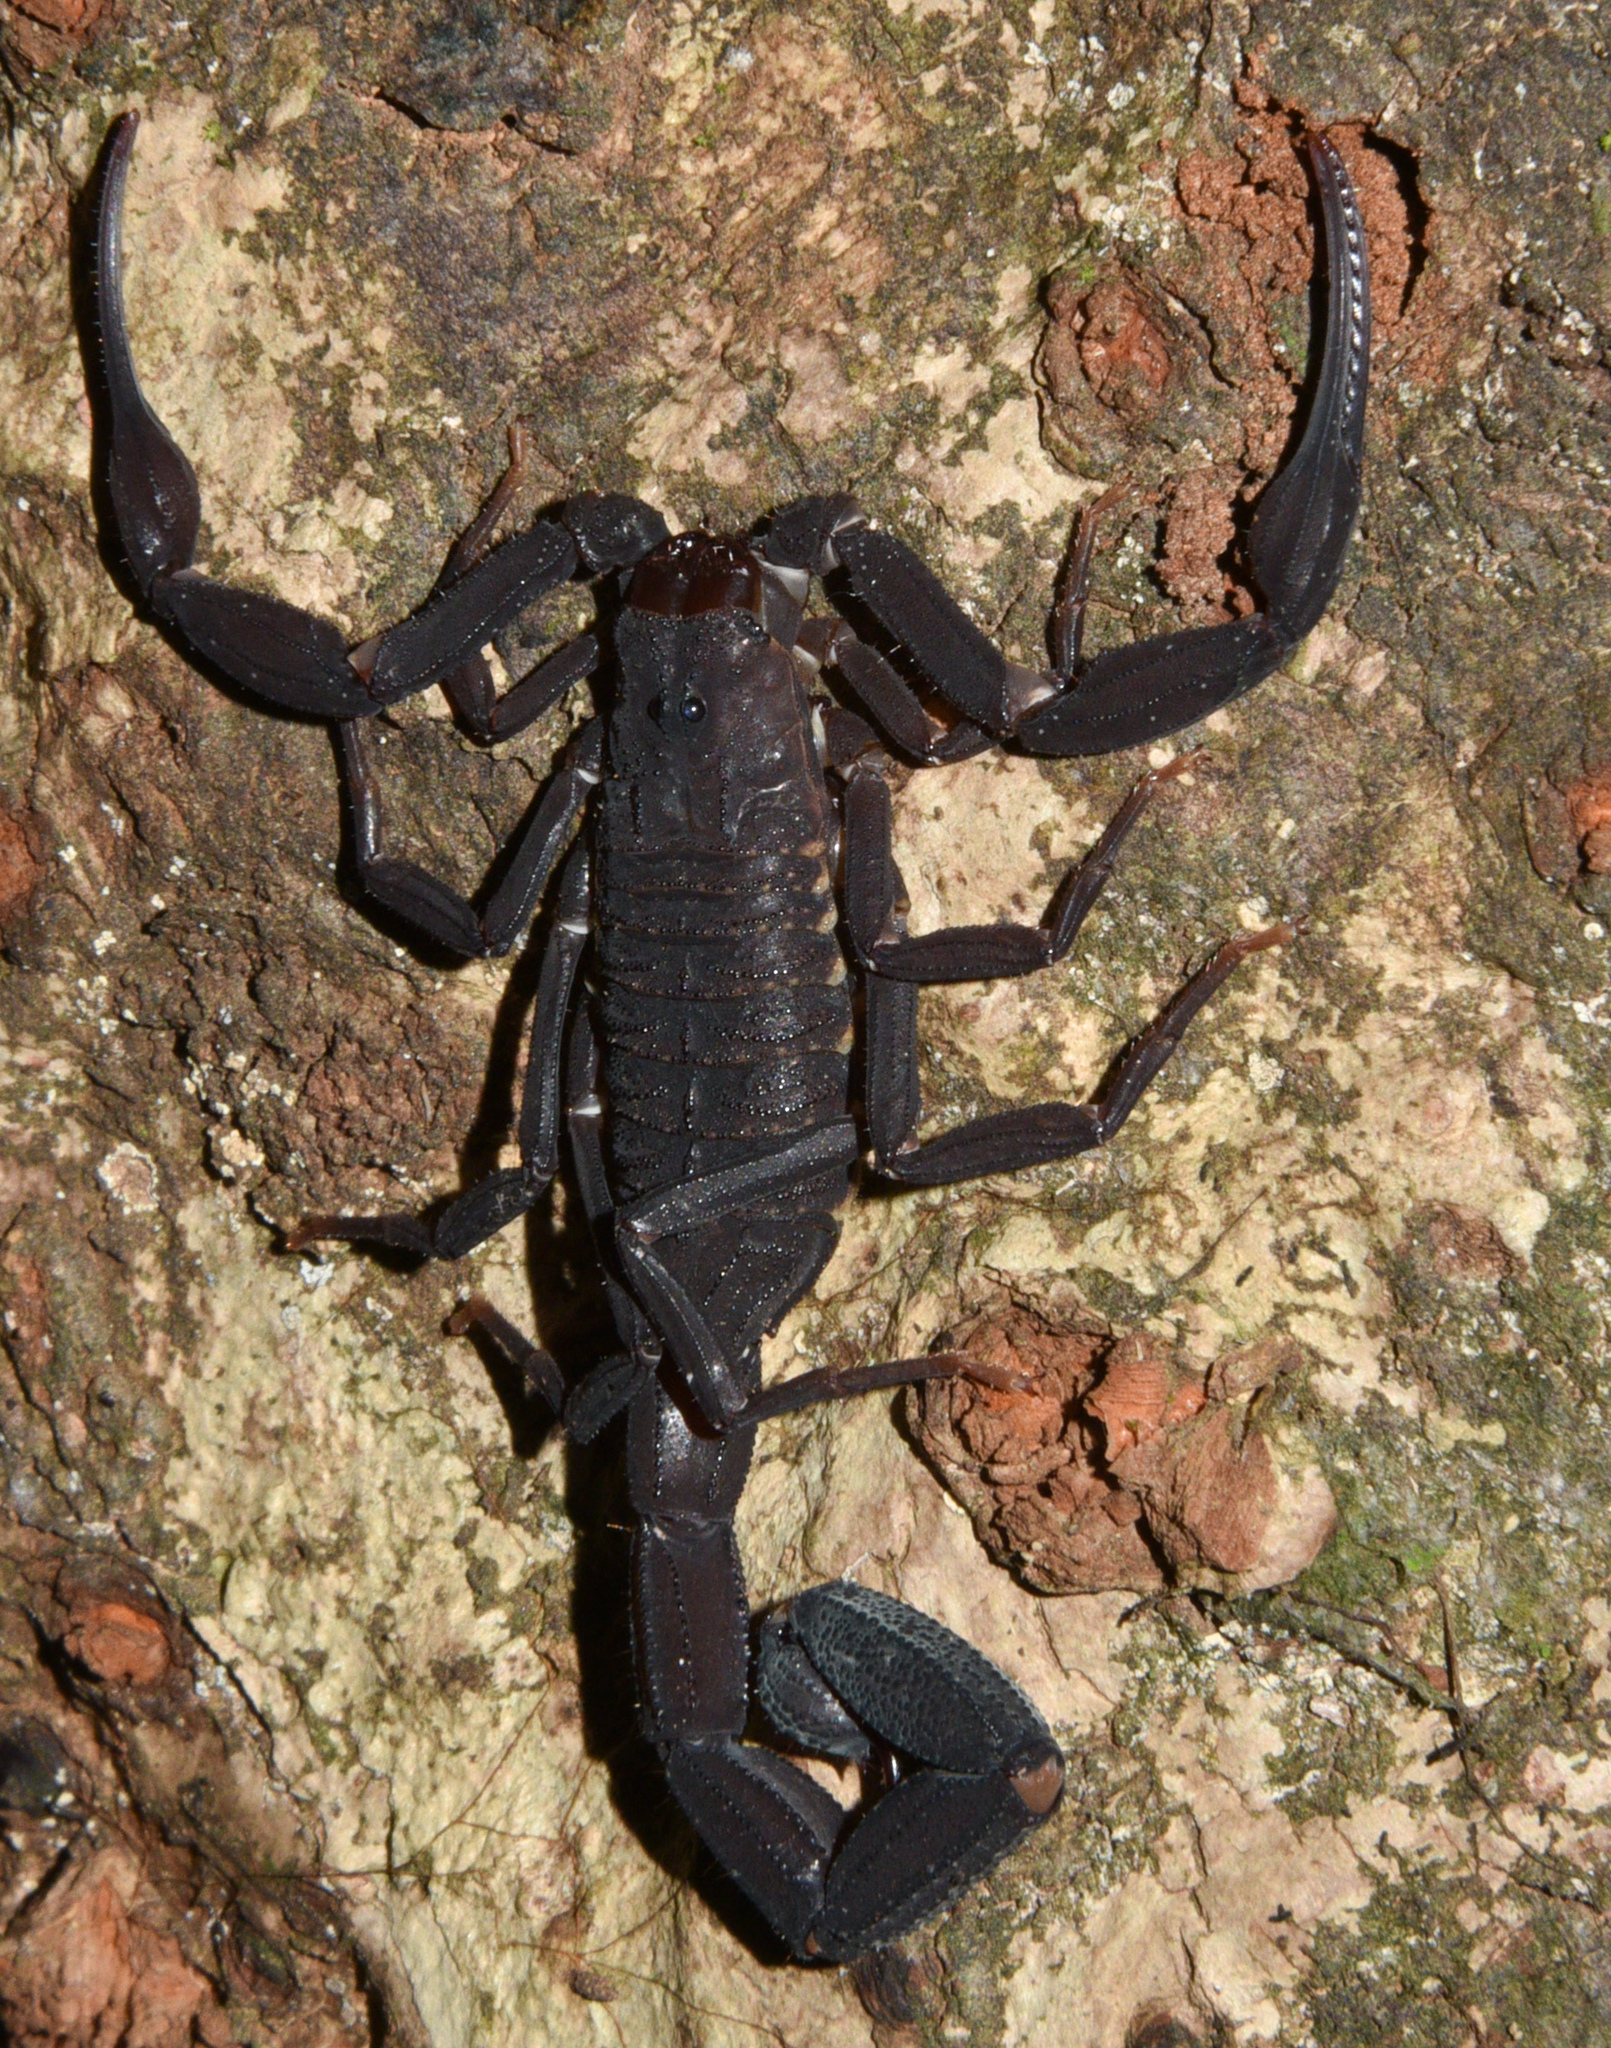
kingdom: Animalia
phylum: Arthropoda
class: Arachnida
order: Scorpiones
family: Buthidae
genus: Tityus
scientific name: Tityus pachyurus
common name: Scorpions
